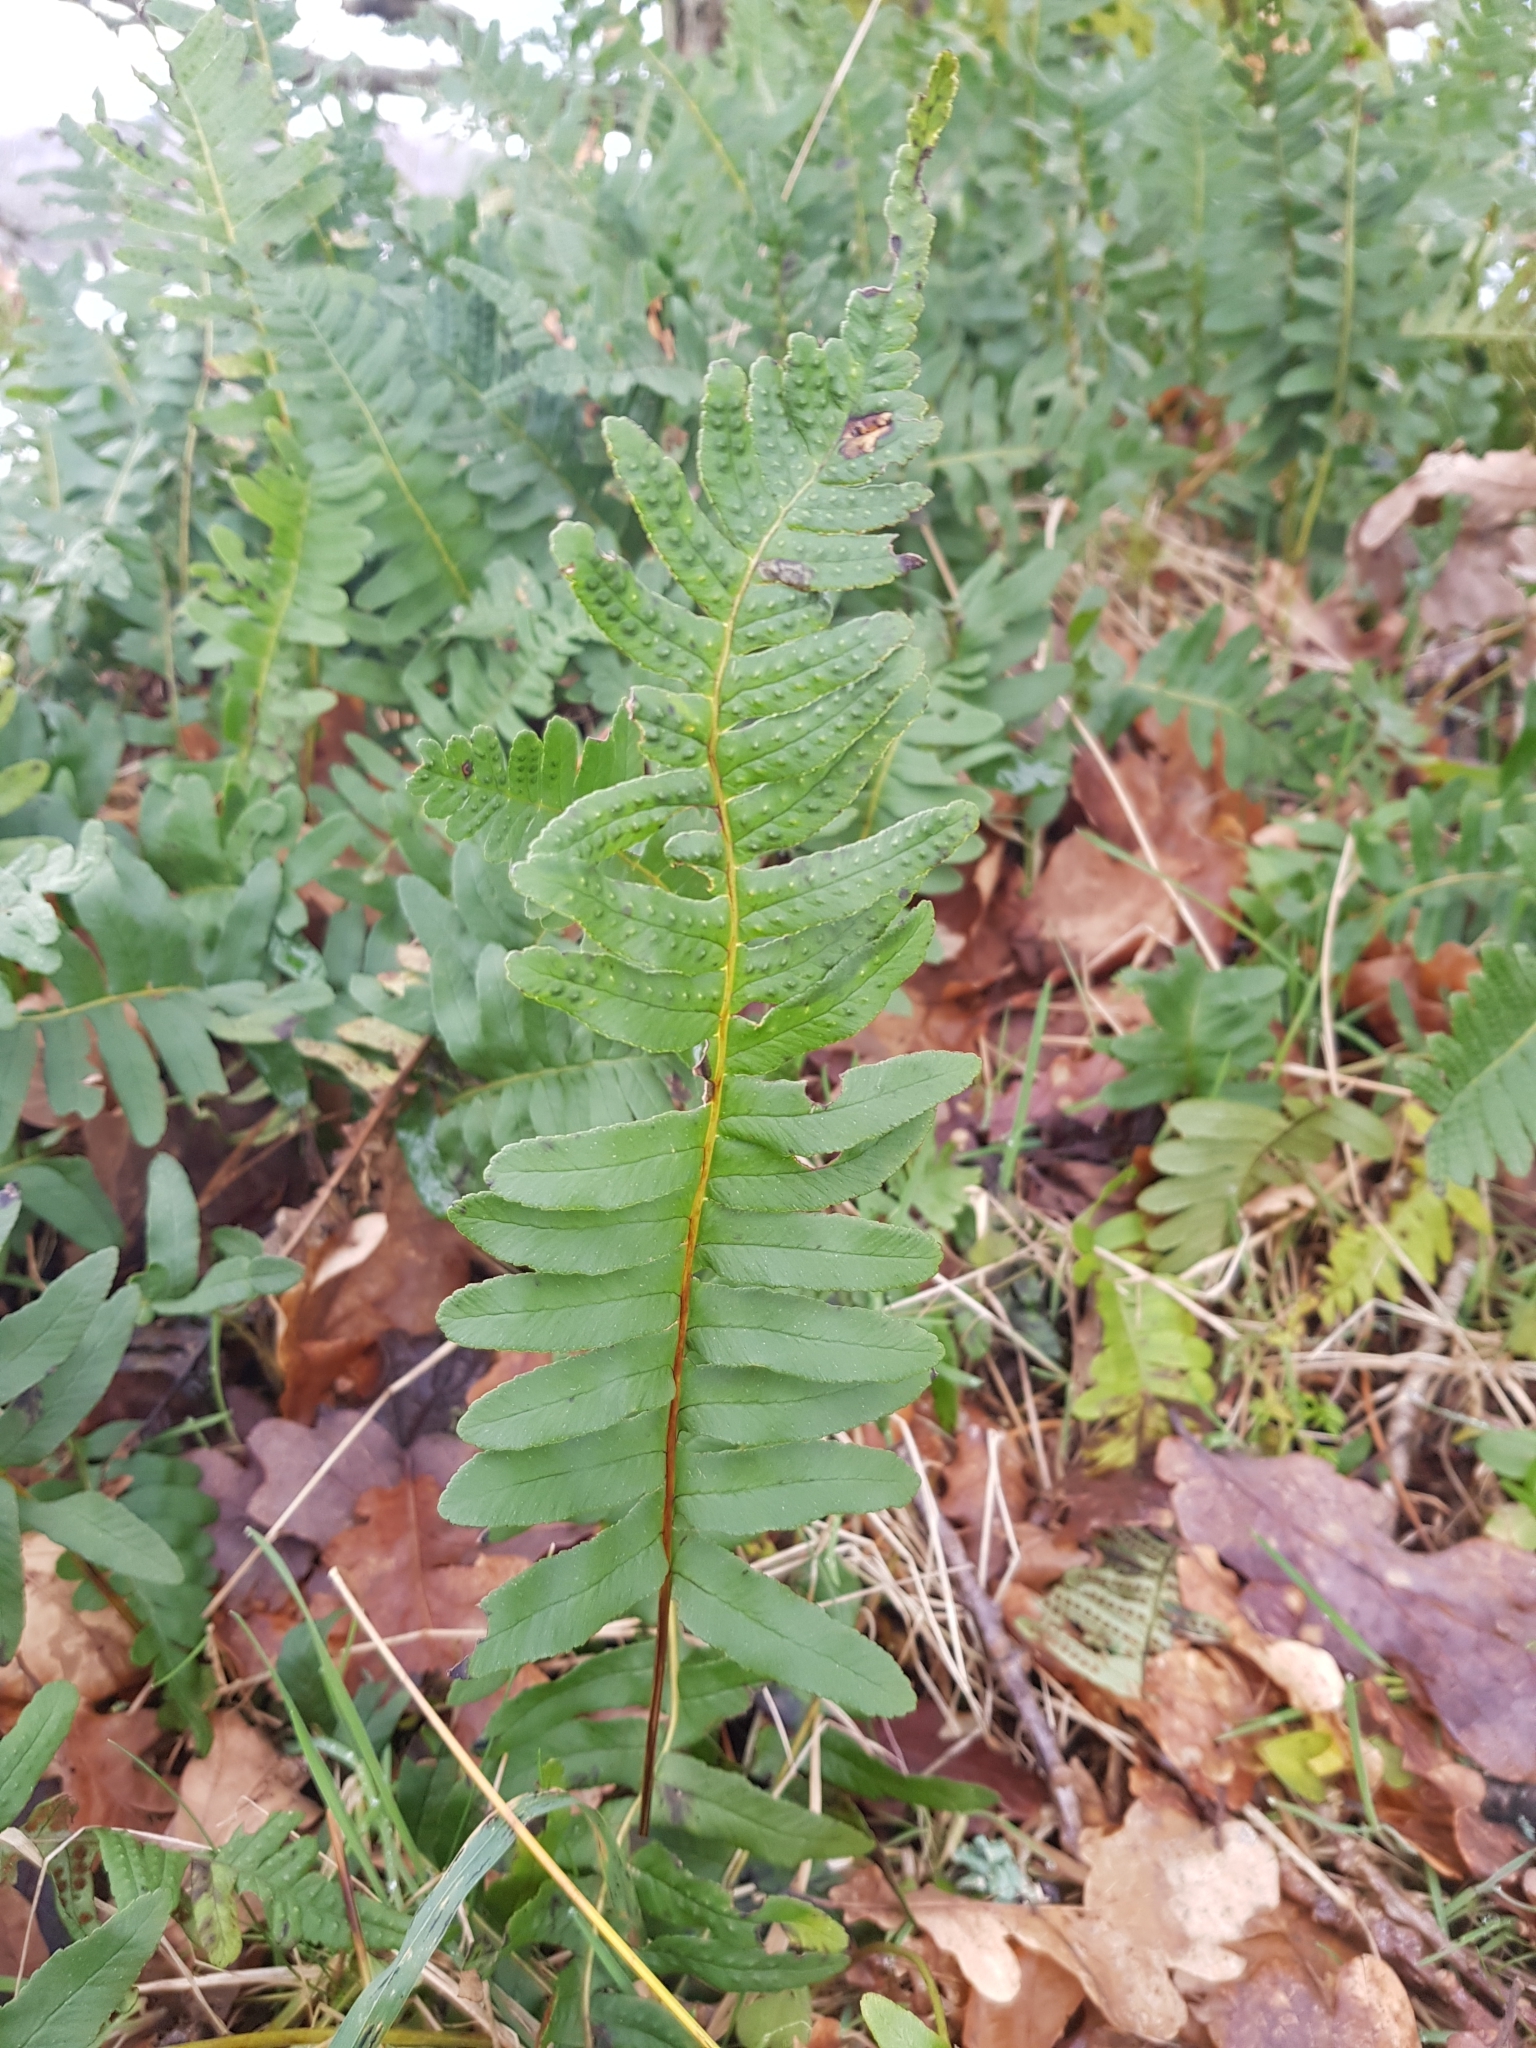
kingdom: Plantae
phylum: Tracheophyta
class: Polypodiopsida
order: Polypodiales
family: Polypodiaceae
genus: Polypodium
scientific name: Polypodium vulgare
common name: Common polypody
